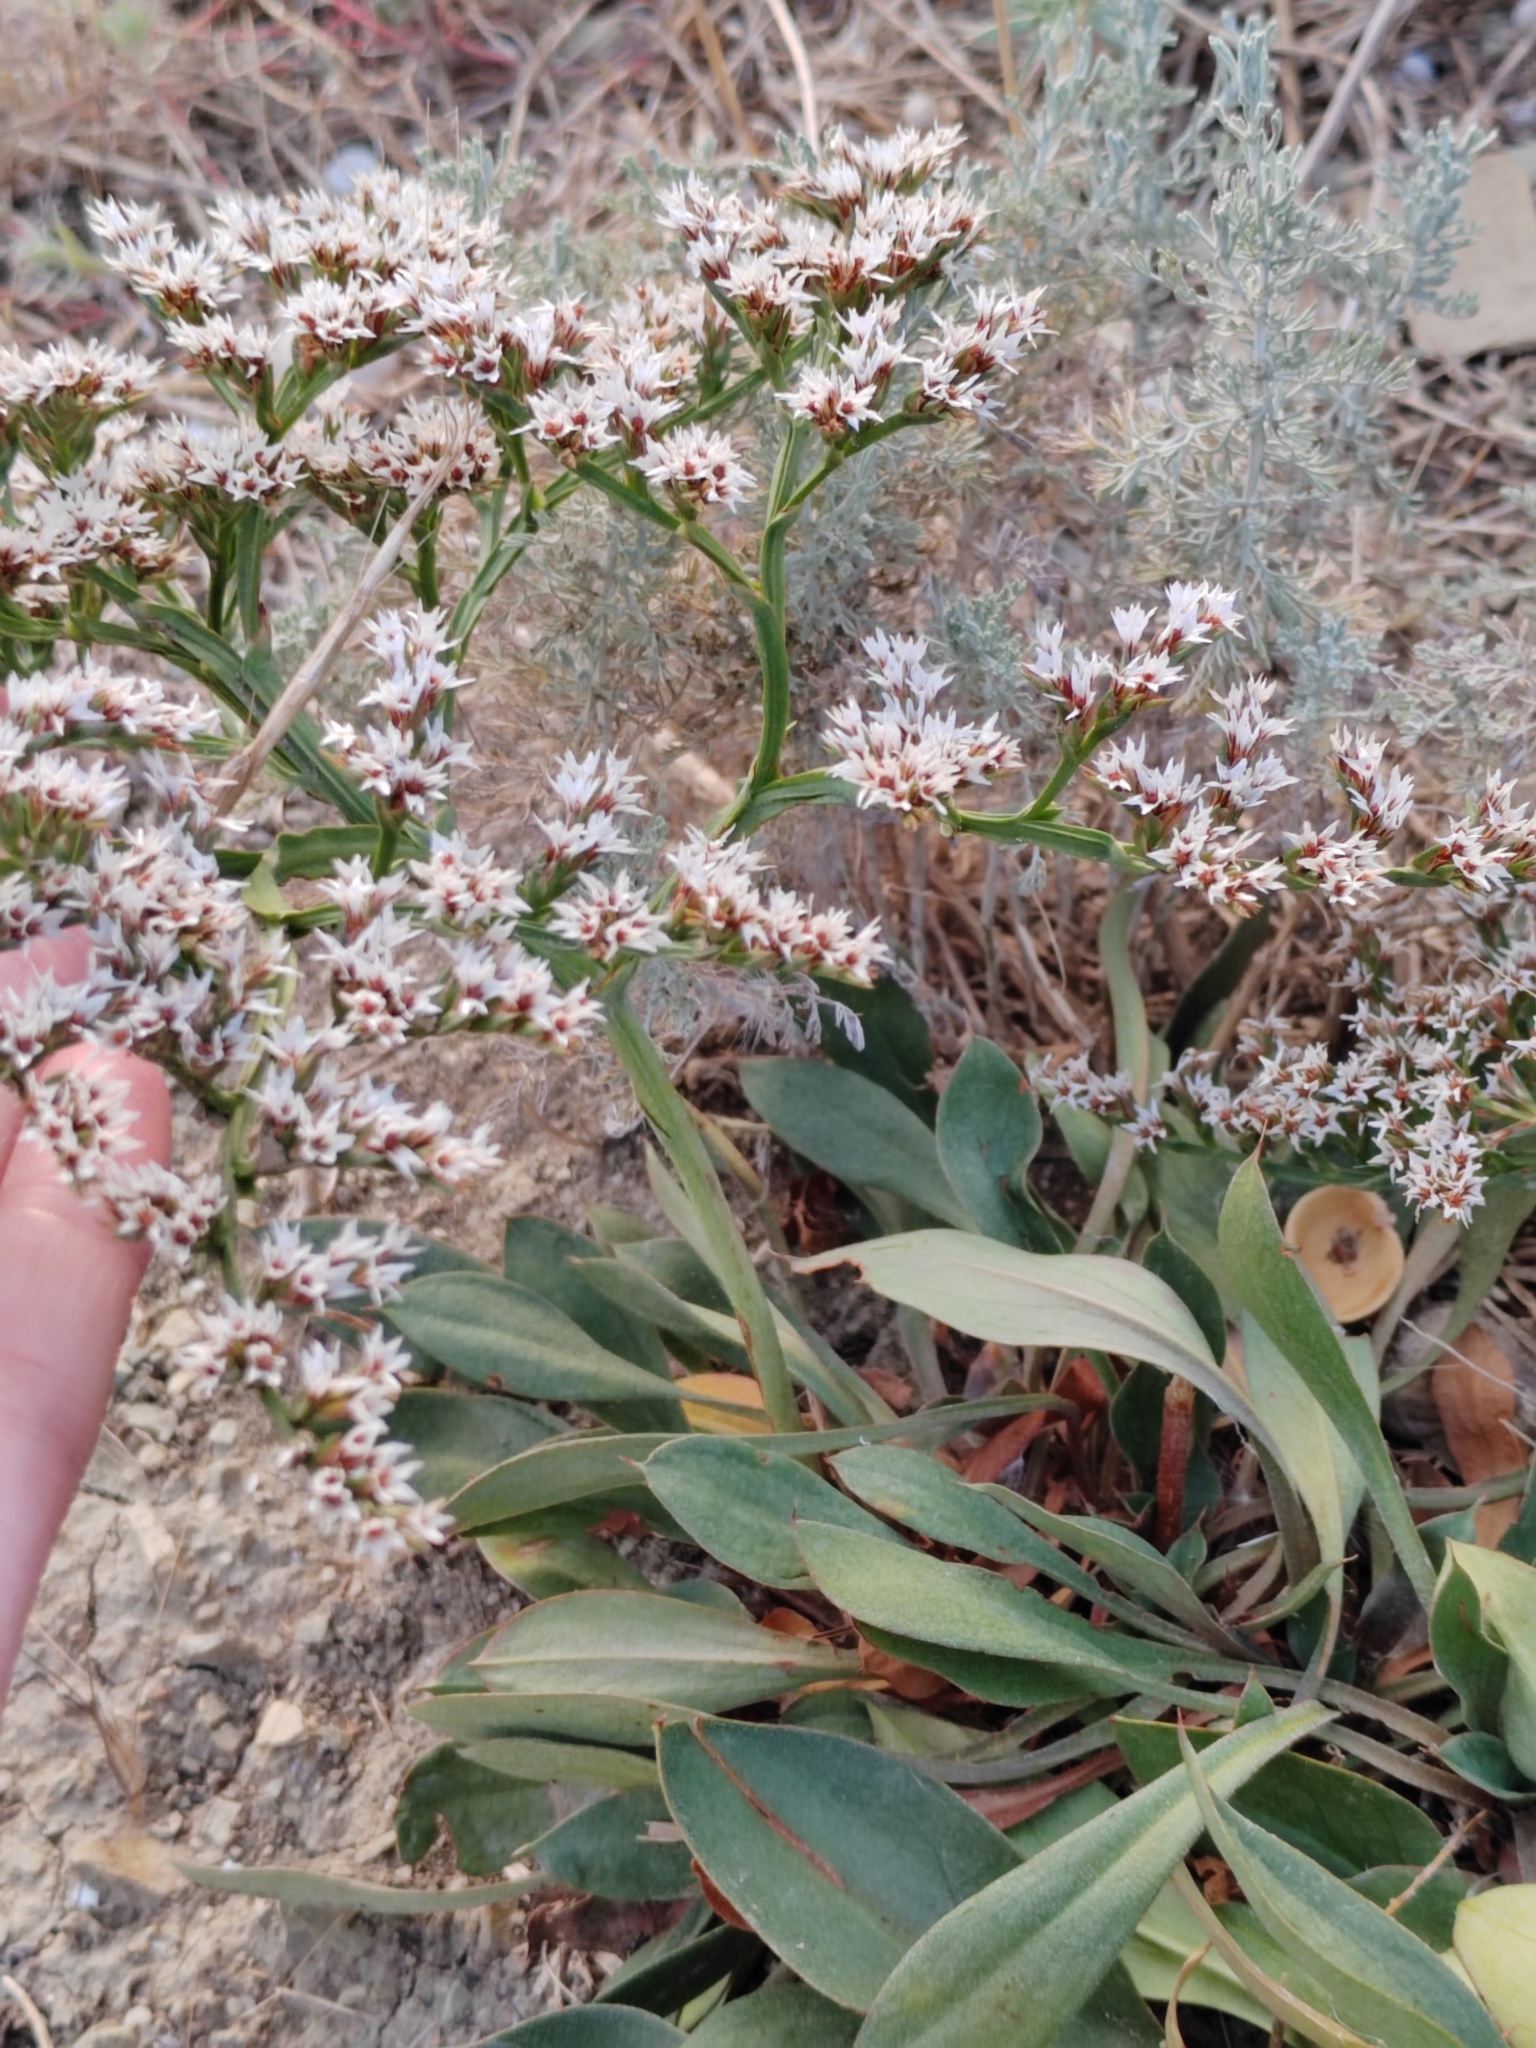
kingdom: Plantae
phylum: Tracheophyta
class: Magnoliopsida
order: Caryophyllales
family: Plumbaginaceae
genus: Goniolimon
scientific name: Goniolimon tataricum
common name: Statice
